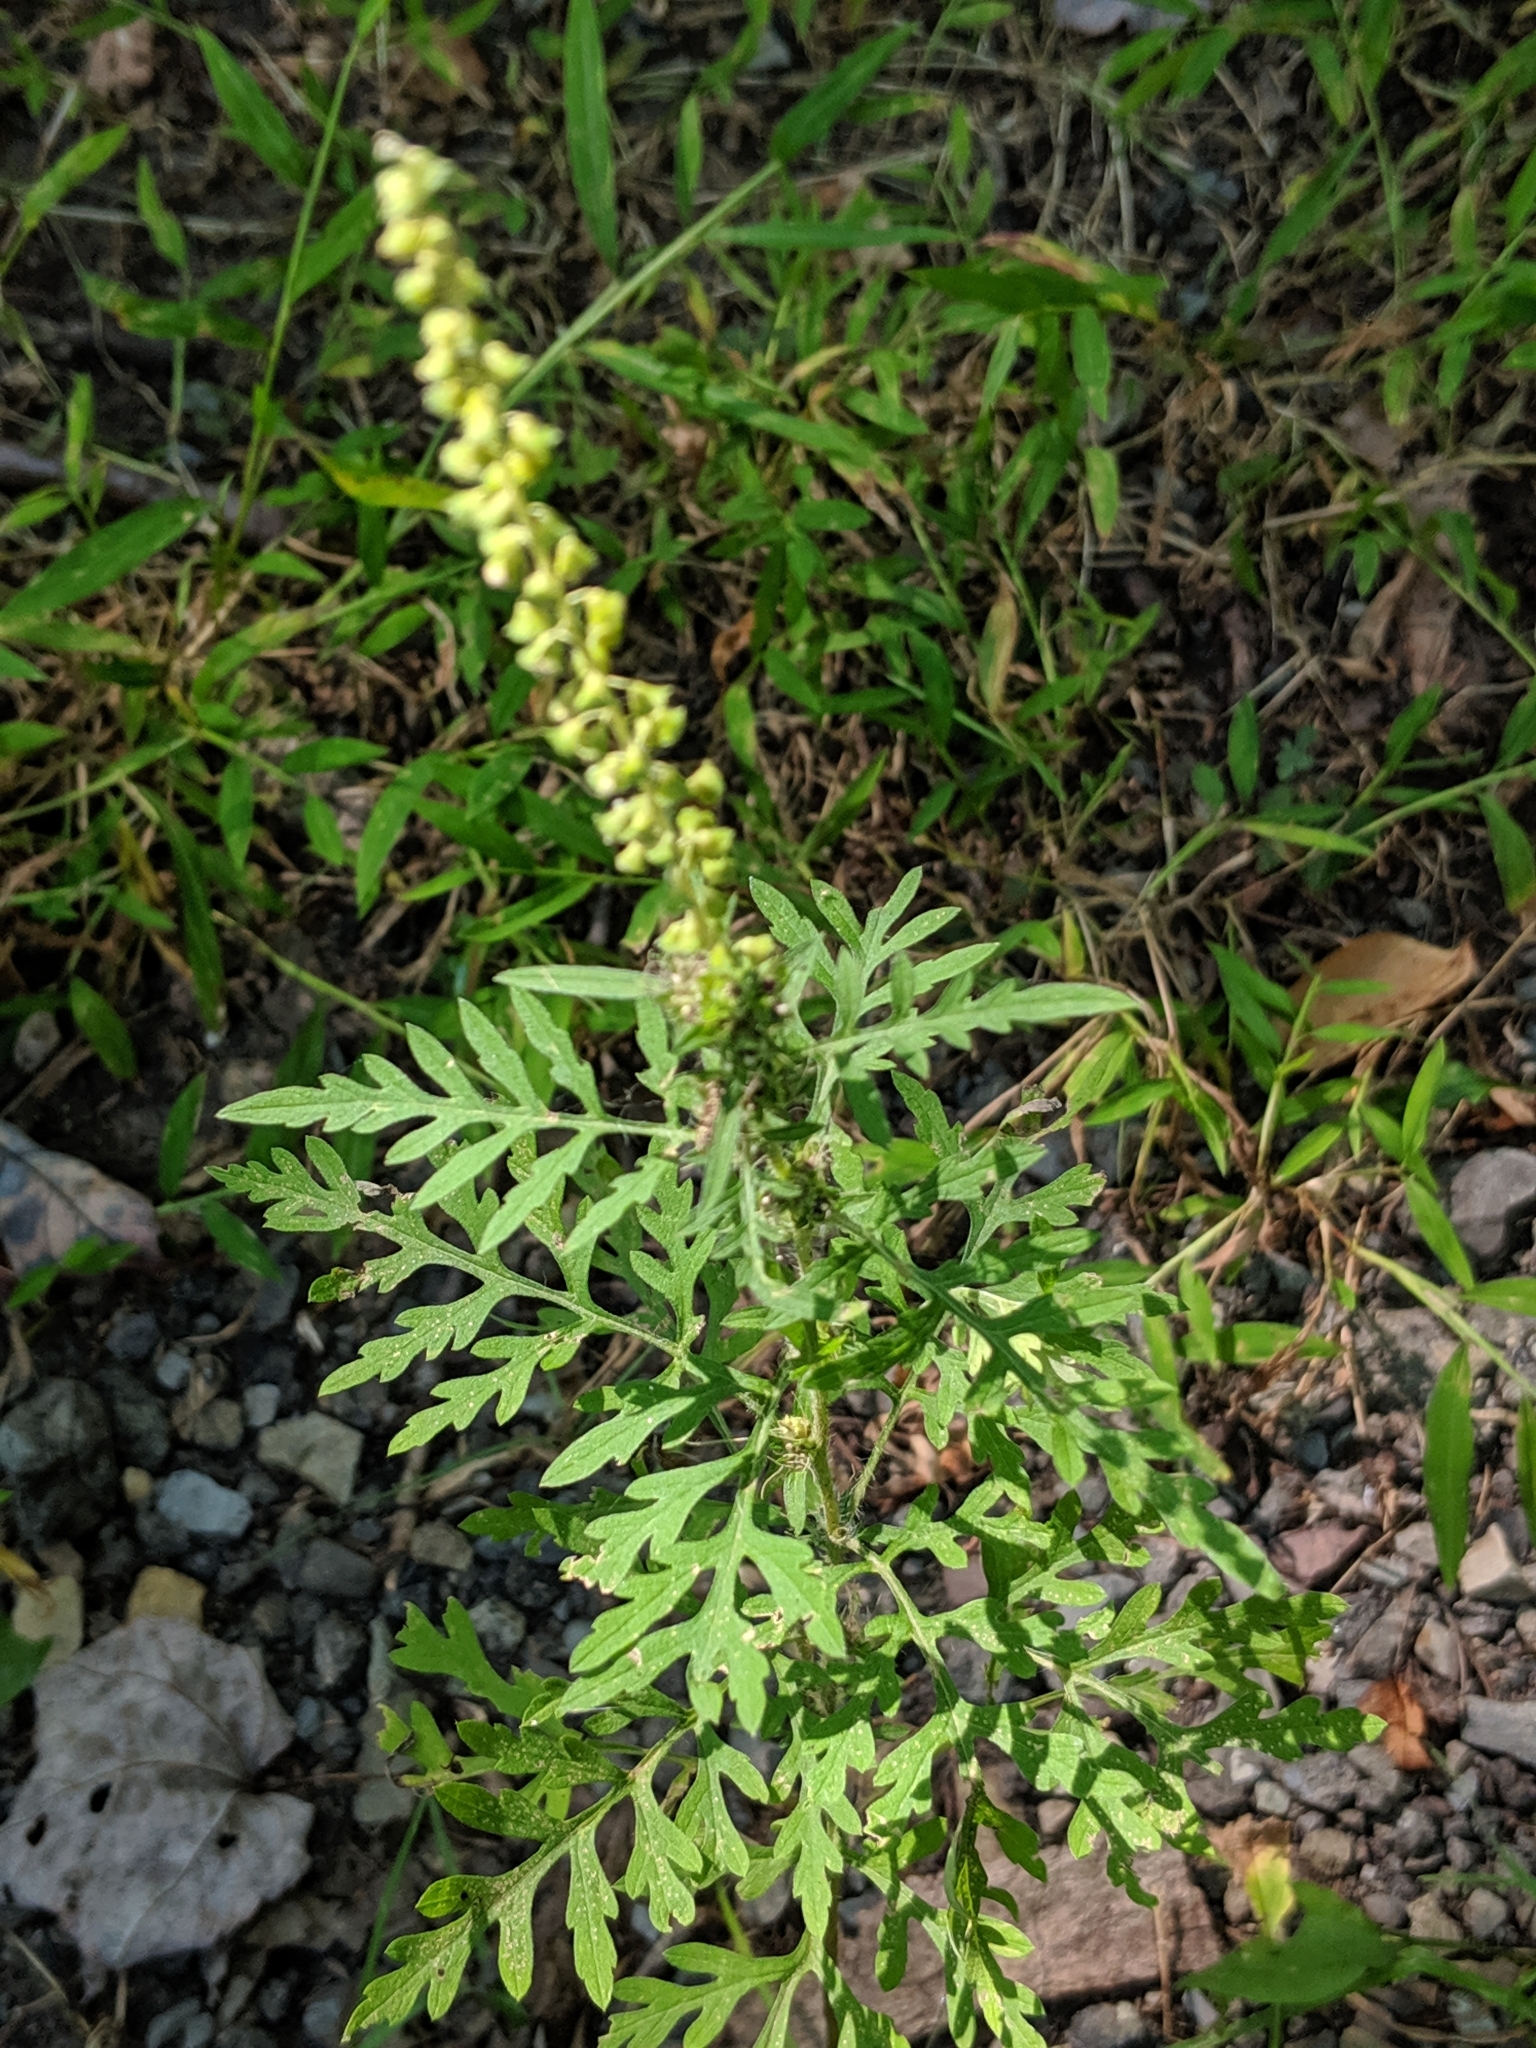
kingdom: Plantae
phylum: Tracheophyta
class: Magnoliopsida
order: Asterales
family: Asteraceae
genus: Ambrosia
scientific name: Ambrosia artemisiifolia
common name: Annual ragweed
